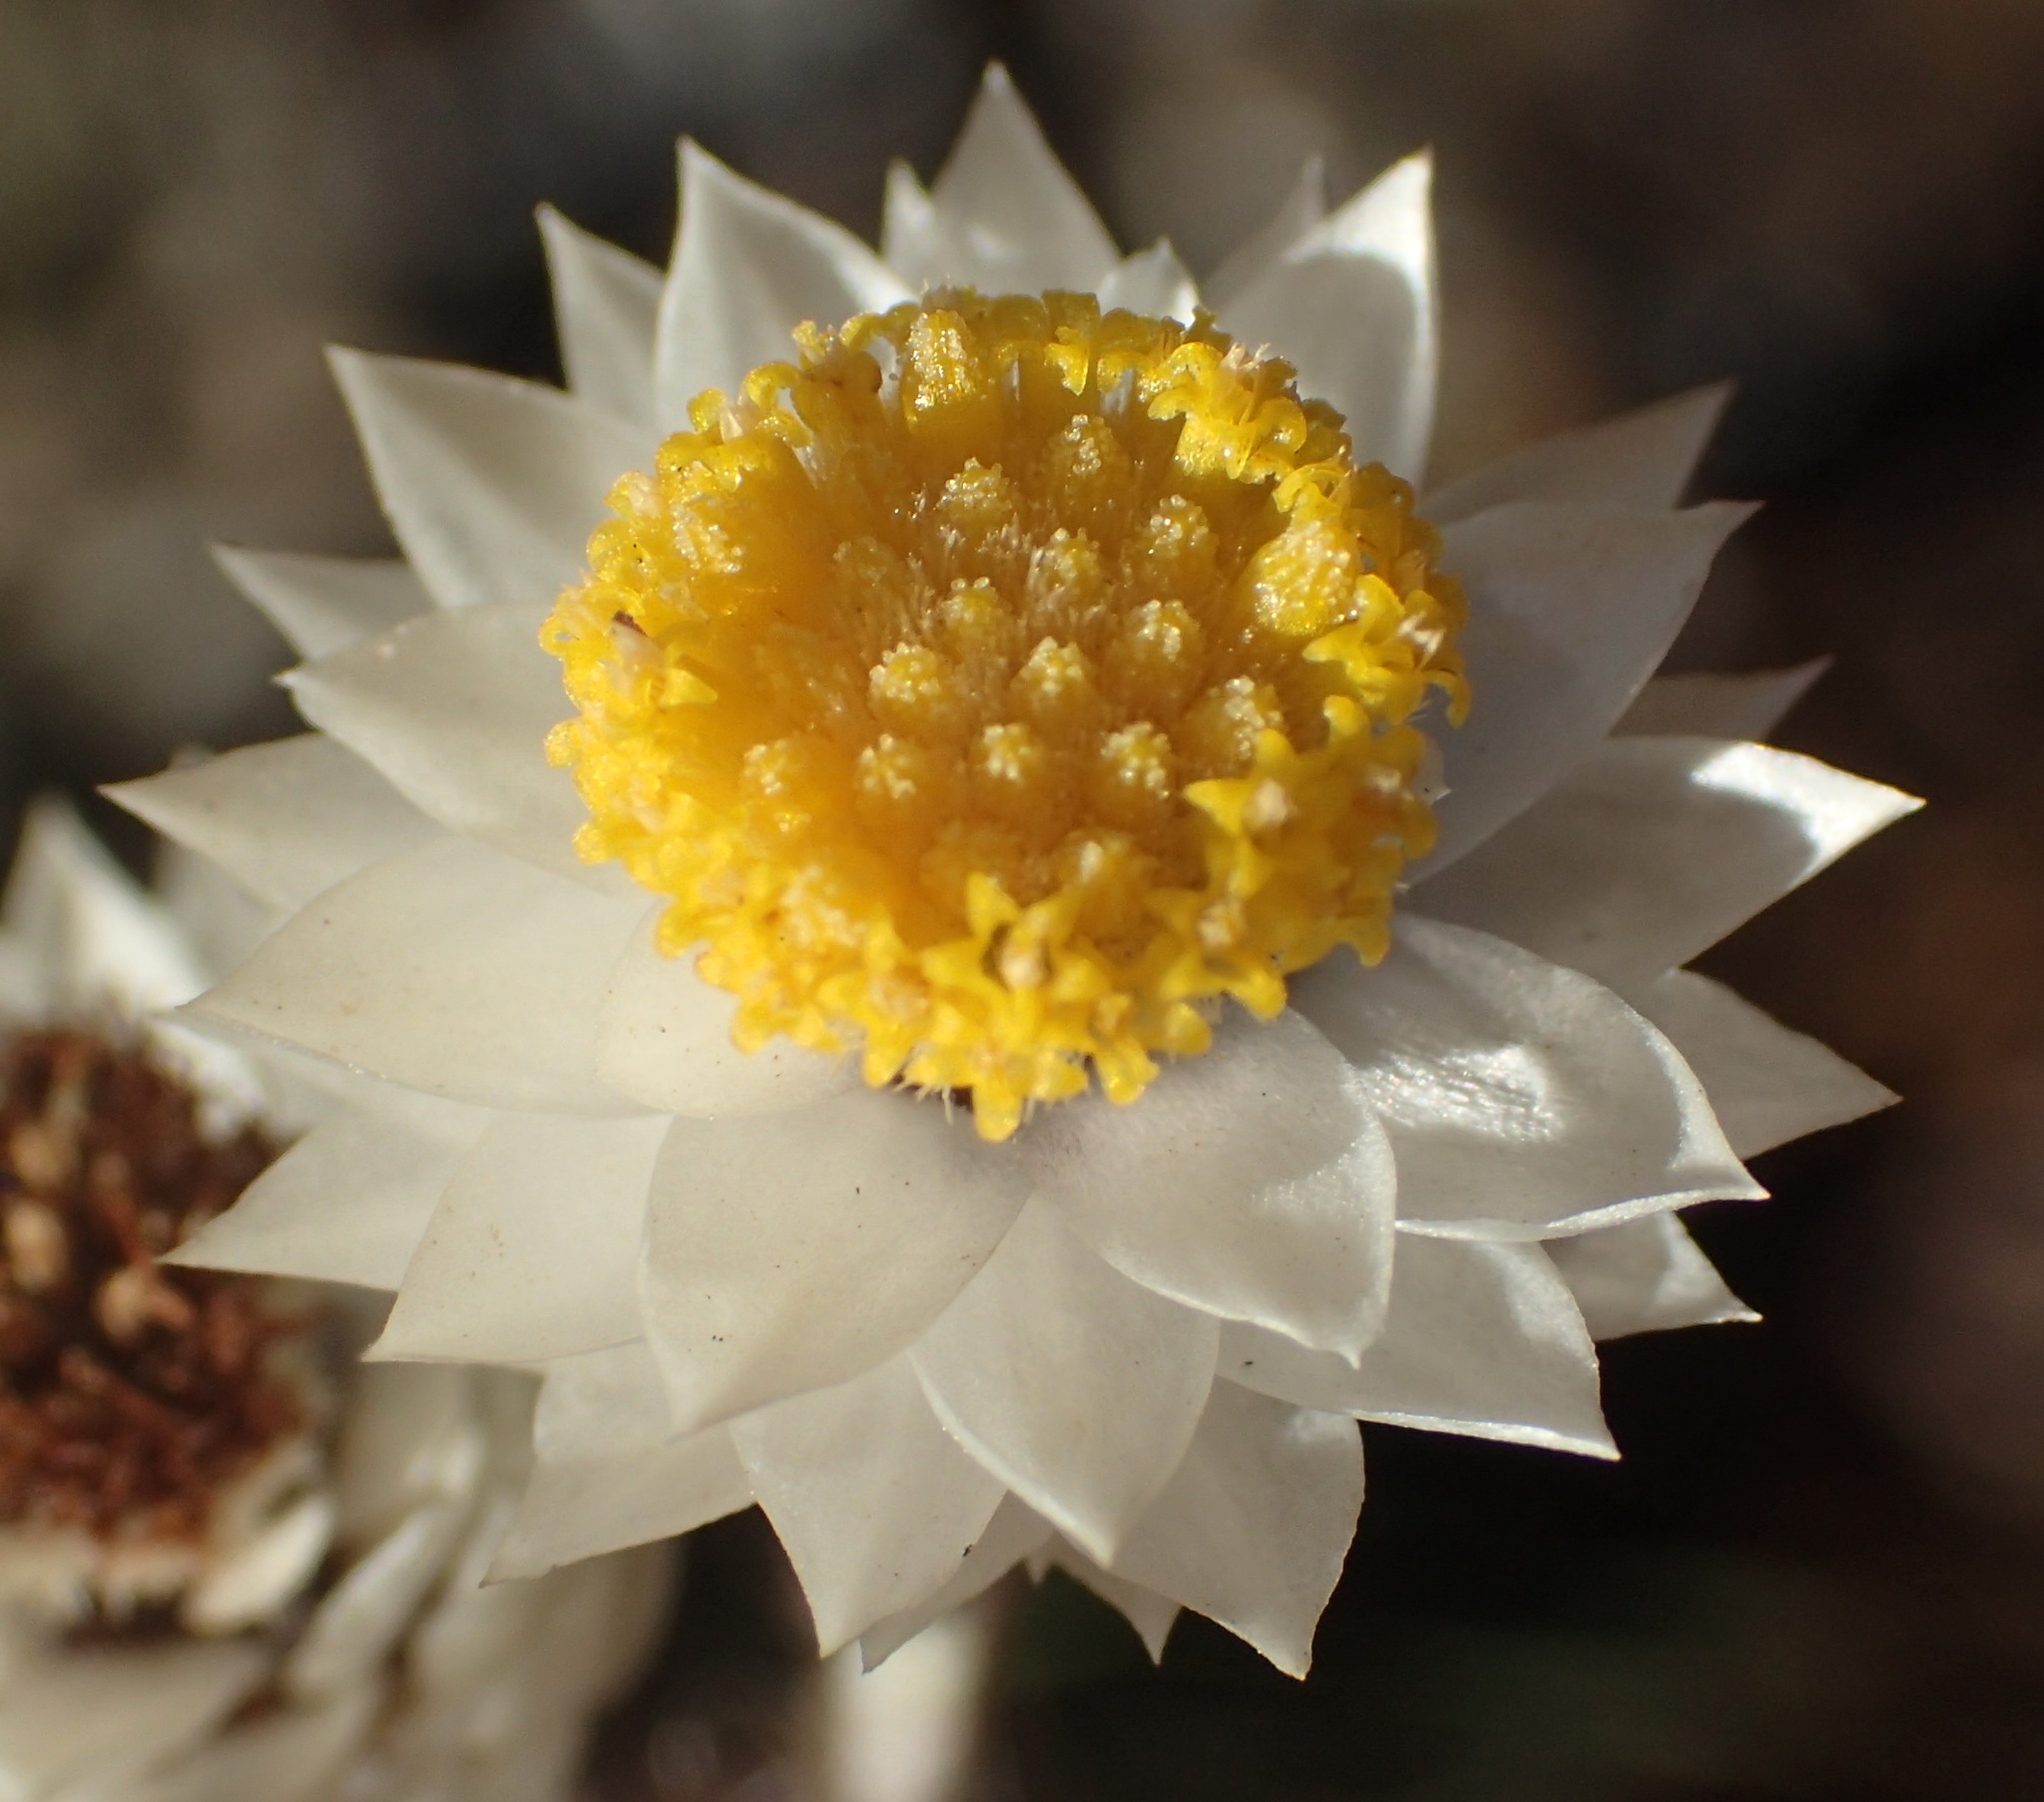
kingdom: Plantae
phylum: Tracheophyta
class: Magnoliopsida
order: Asterales
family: Asteraceae
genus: Achyranthemum
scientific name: Achyranthemum paniculatum
